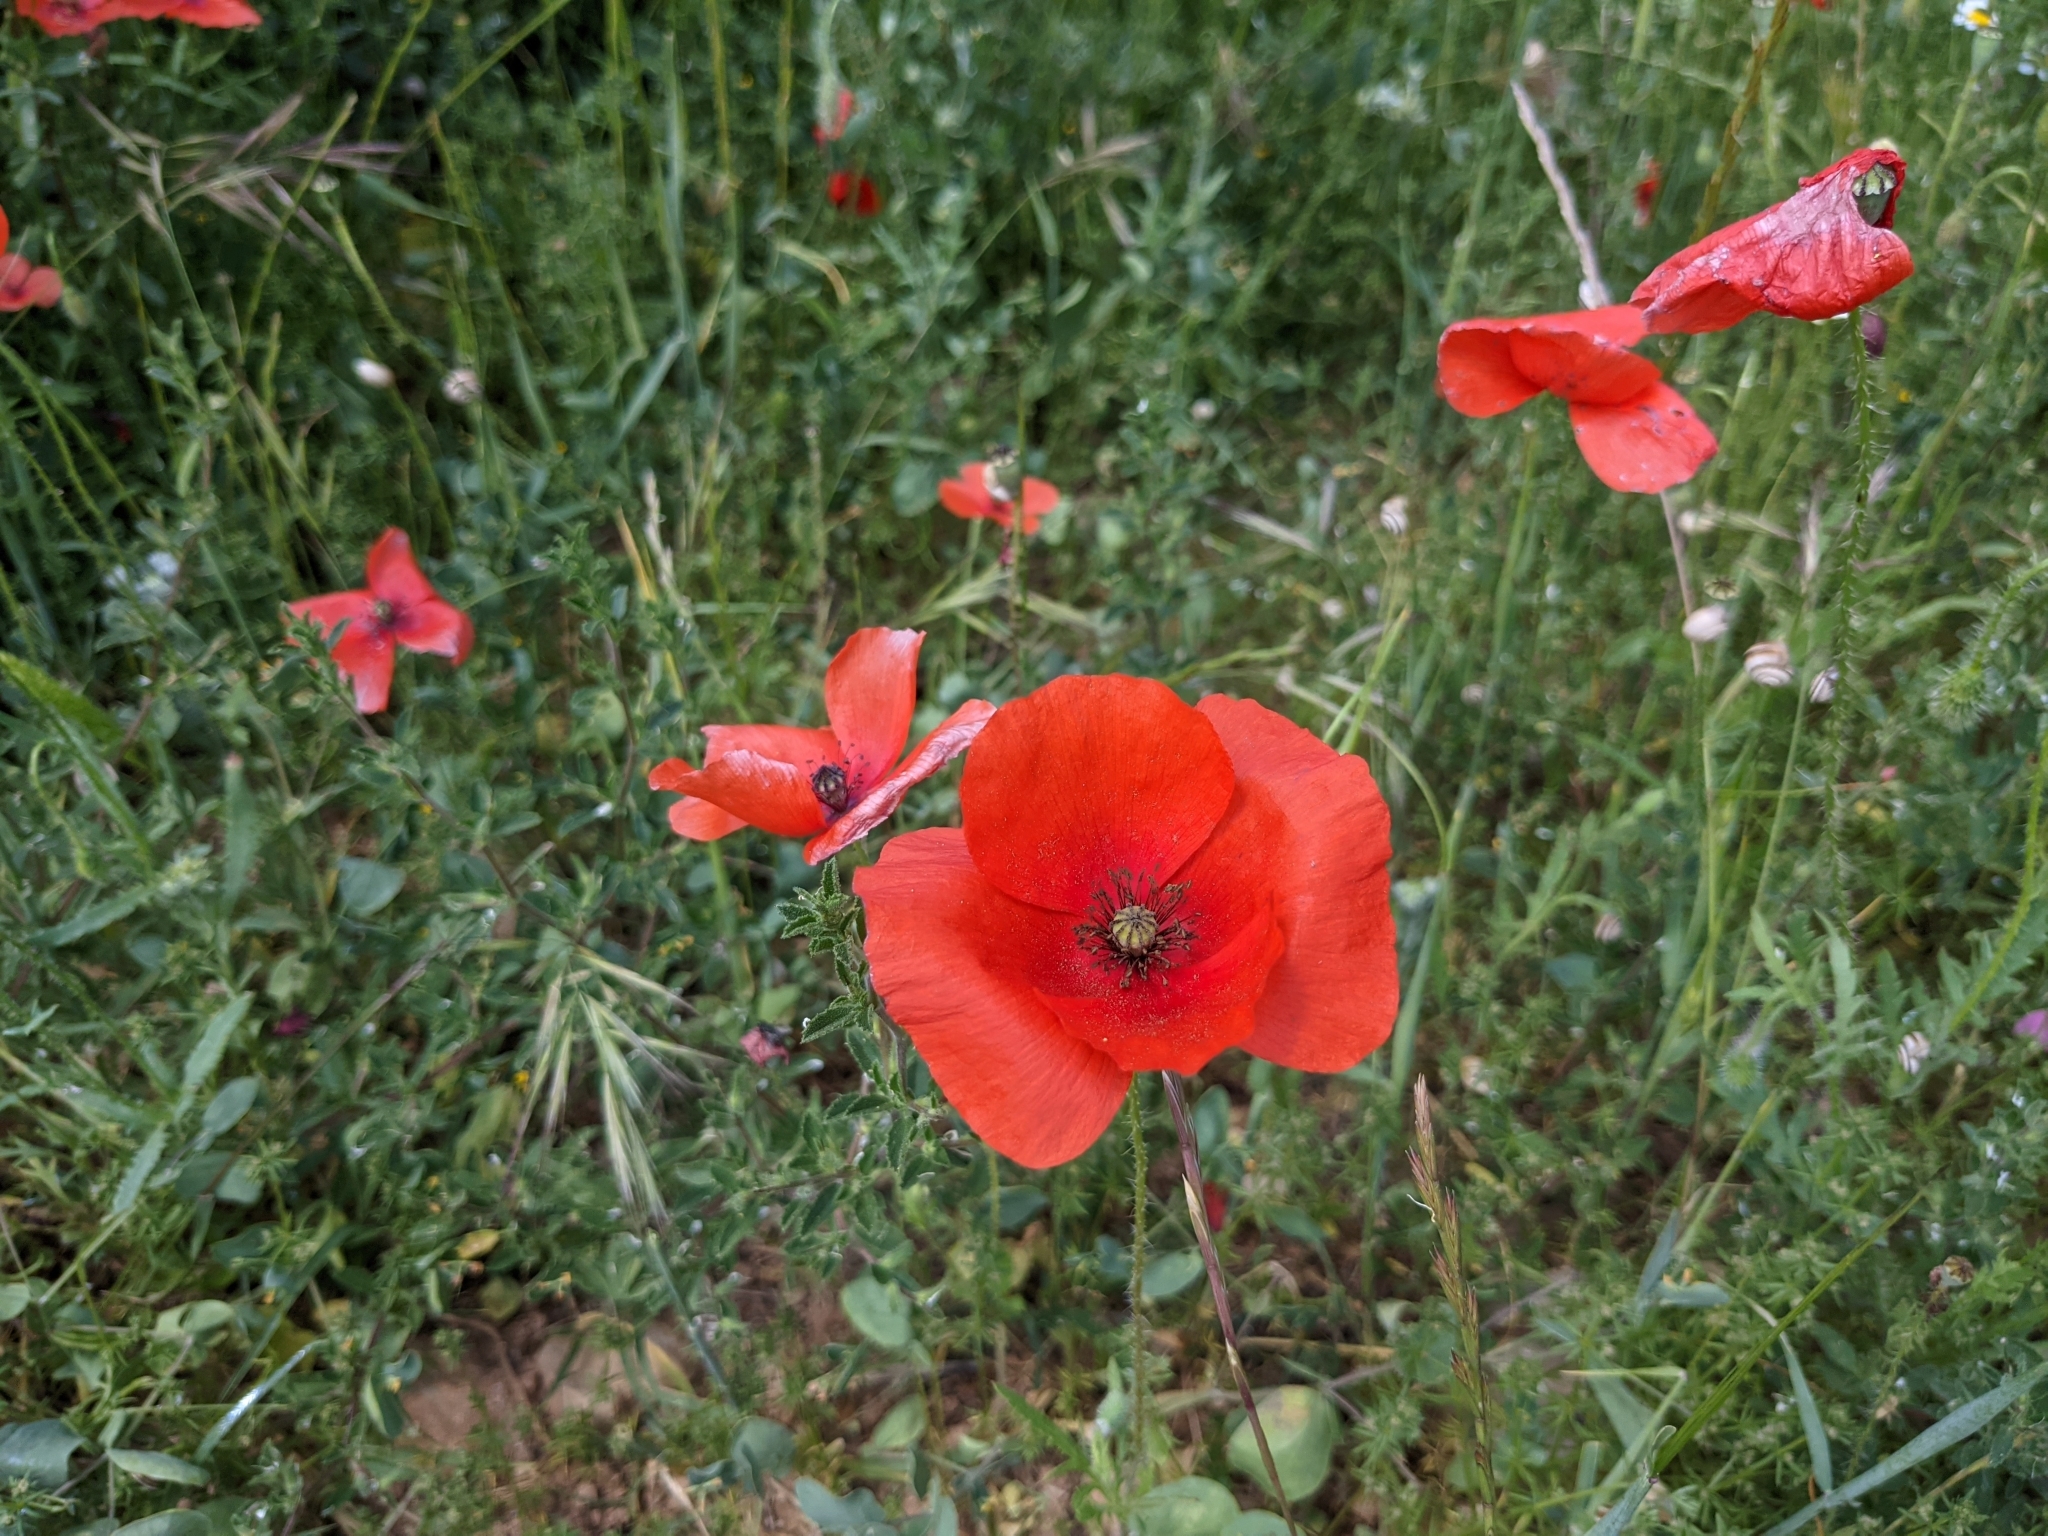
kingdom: Plantae
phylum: Tracheophyta
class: Magnoliopsida
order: Ranunculales
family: Papaveraceae
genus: Papaver
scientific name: Papaver rhoeas
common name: Corn poppy
